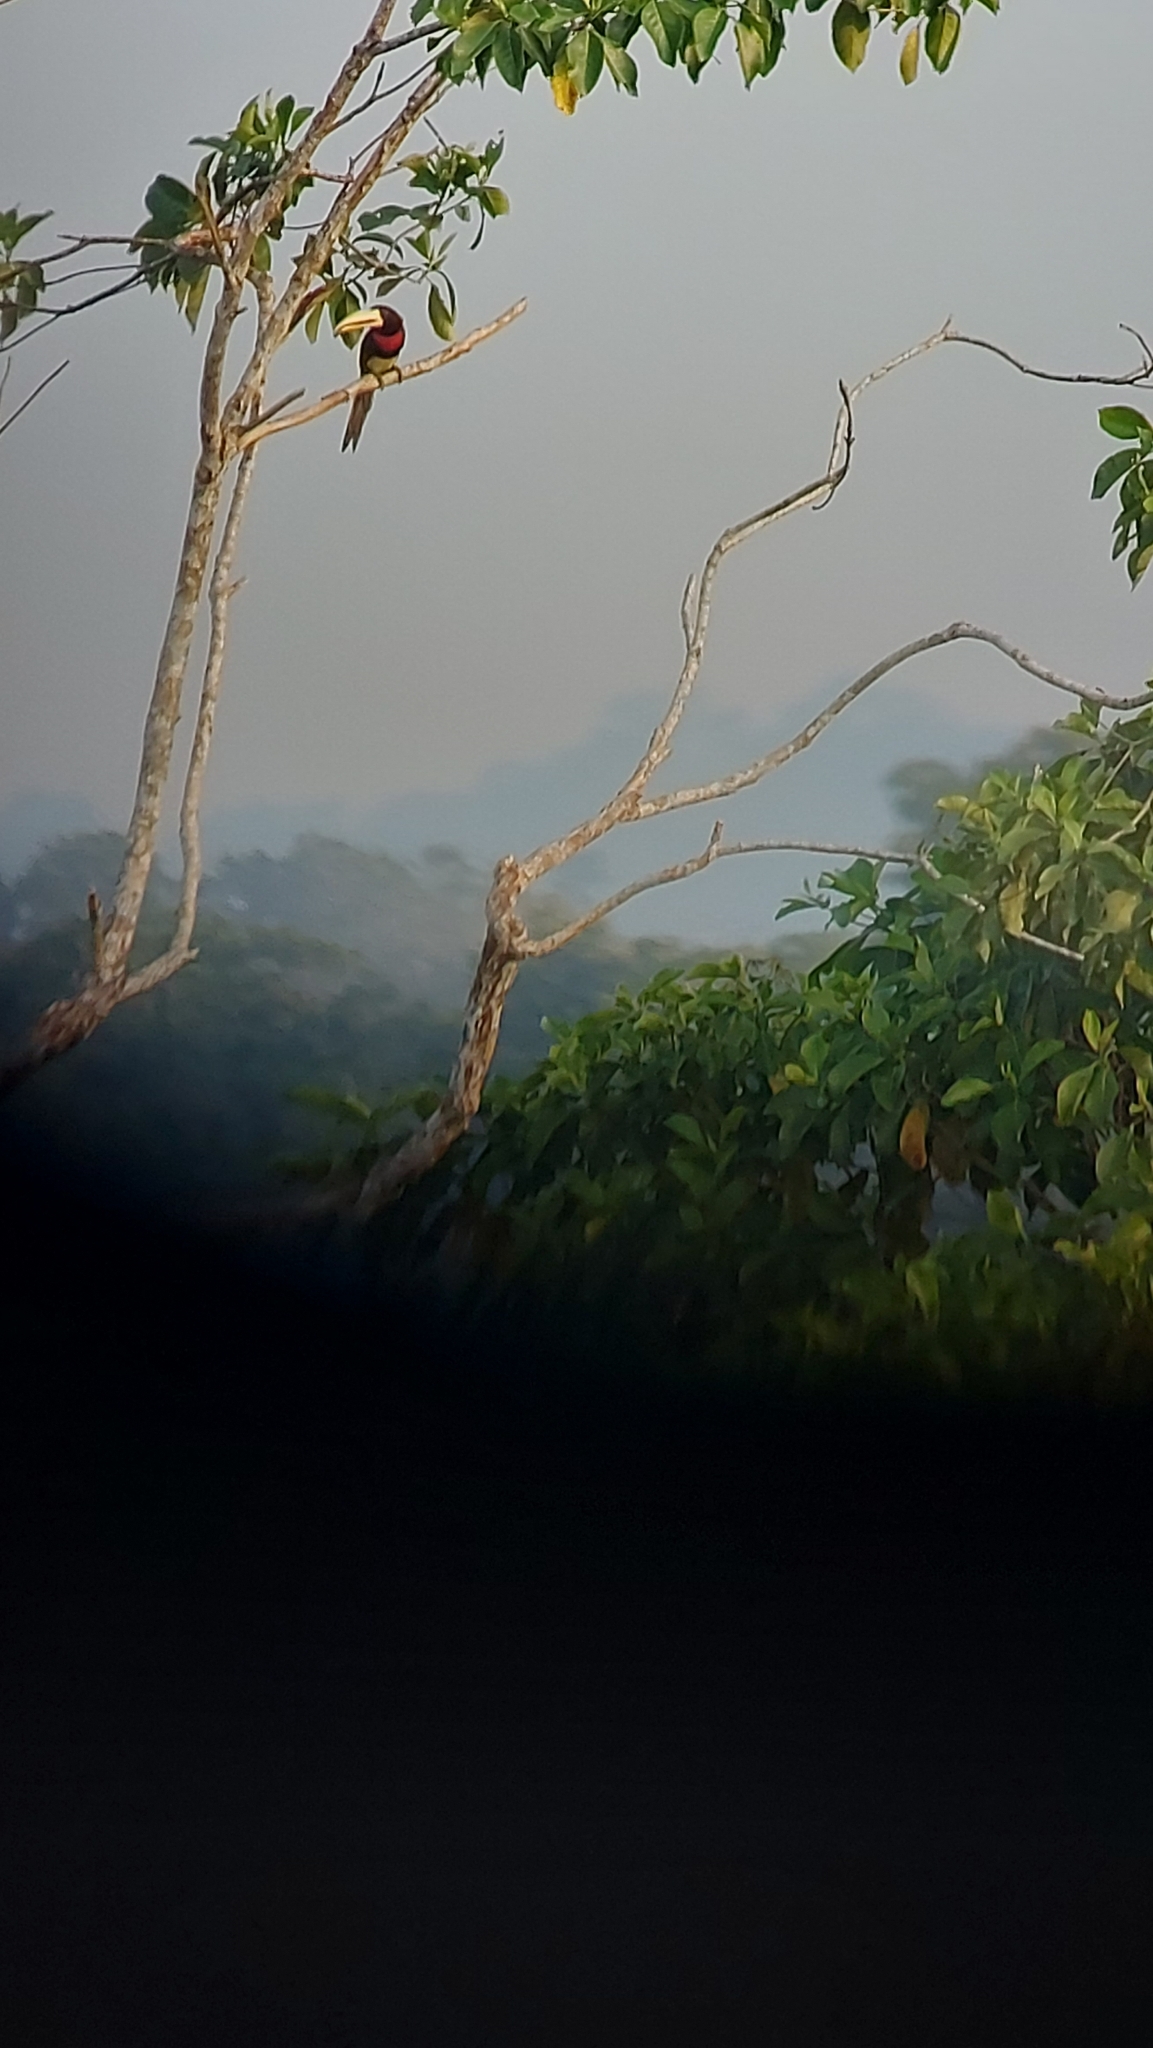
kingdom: Animalia
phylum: Chordata
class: Aves
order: Piciformes
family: Ramphastidae
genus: Pteroglossus
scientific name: Pteroglossus azara
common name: Ivory-billed aracari
